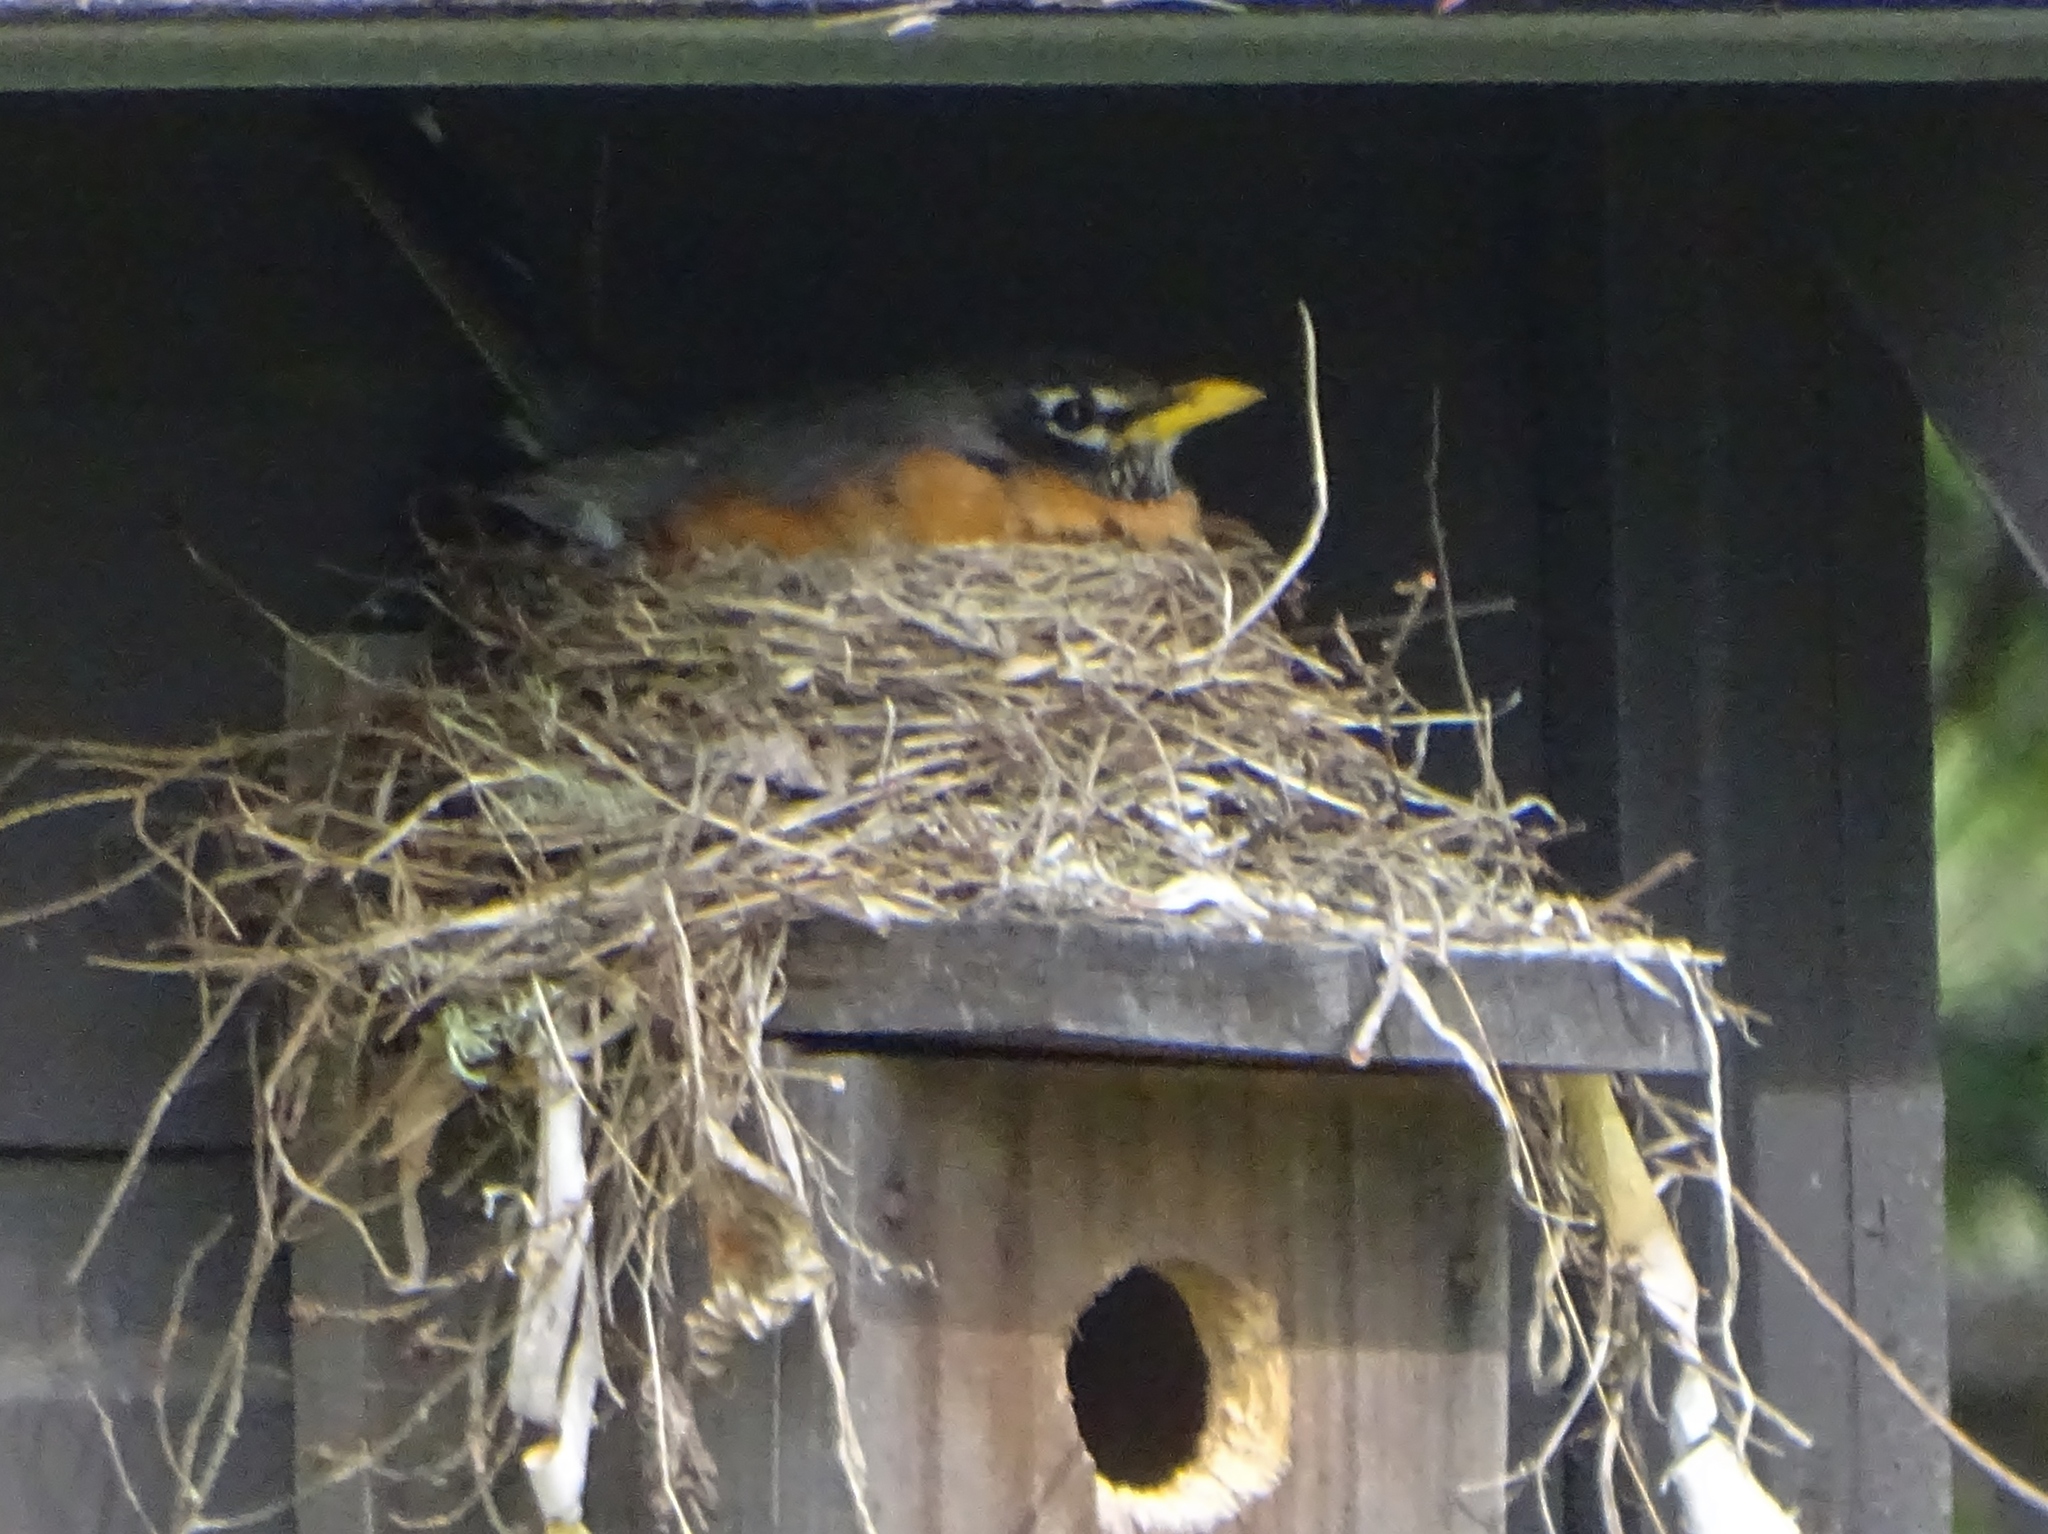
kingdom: Animalia
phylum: Chordata
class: Aves
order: Passeriformes
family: Turdidae
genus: Turdus
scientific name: Turdus migratorius
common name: American robin
